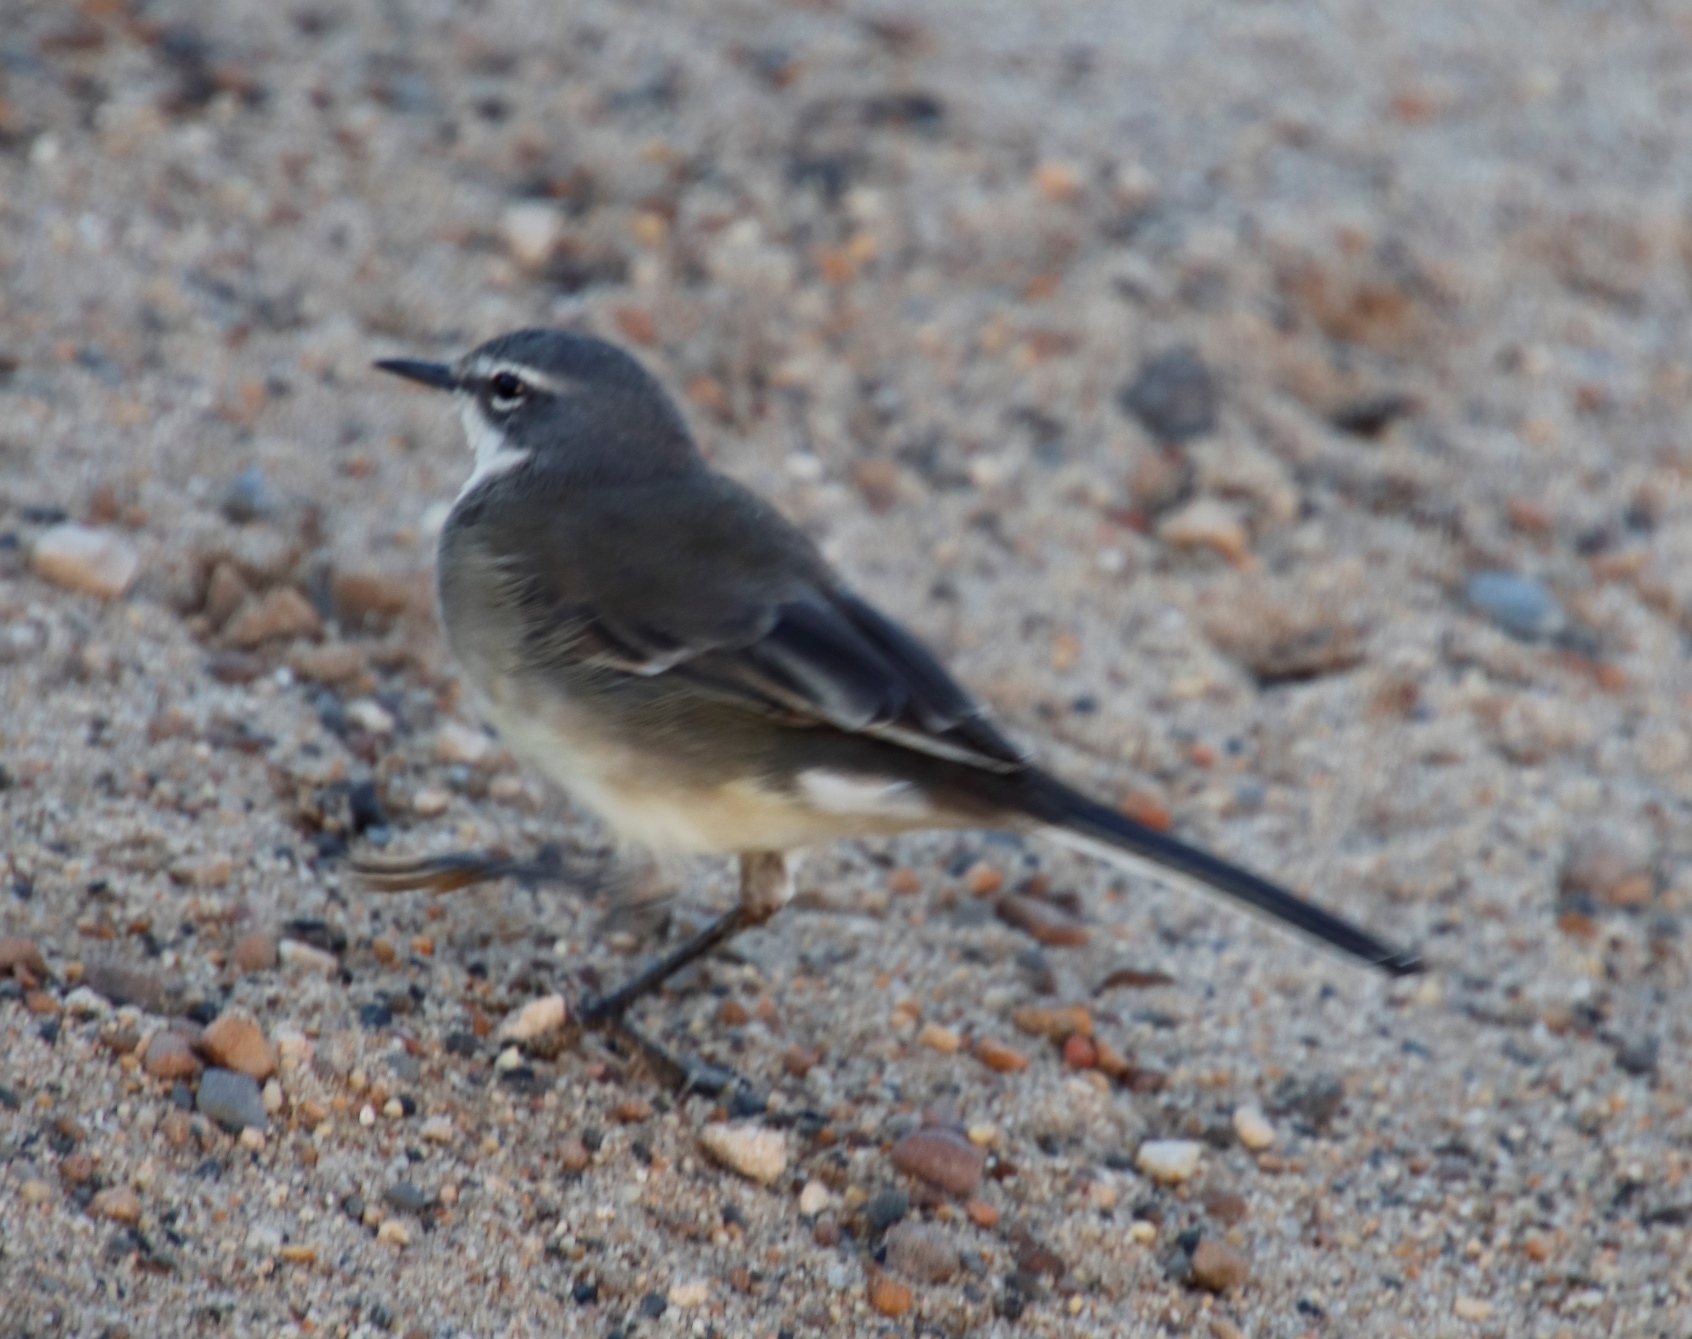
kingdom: Animalia
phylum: Chordata
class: Aves
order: Passeriformes
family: Motacillidae
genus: Motacilla
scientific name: Motacilla capensis
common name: Cape wagtail
